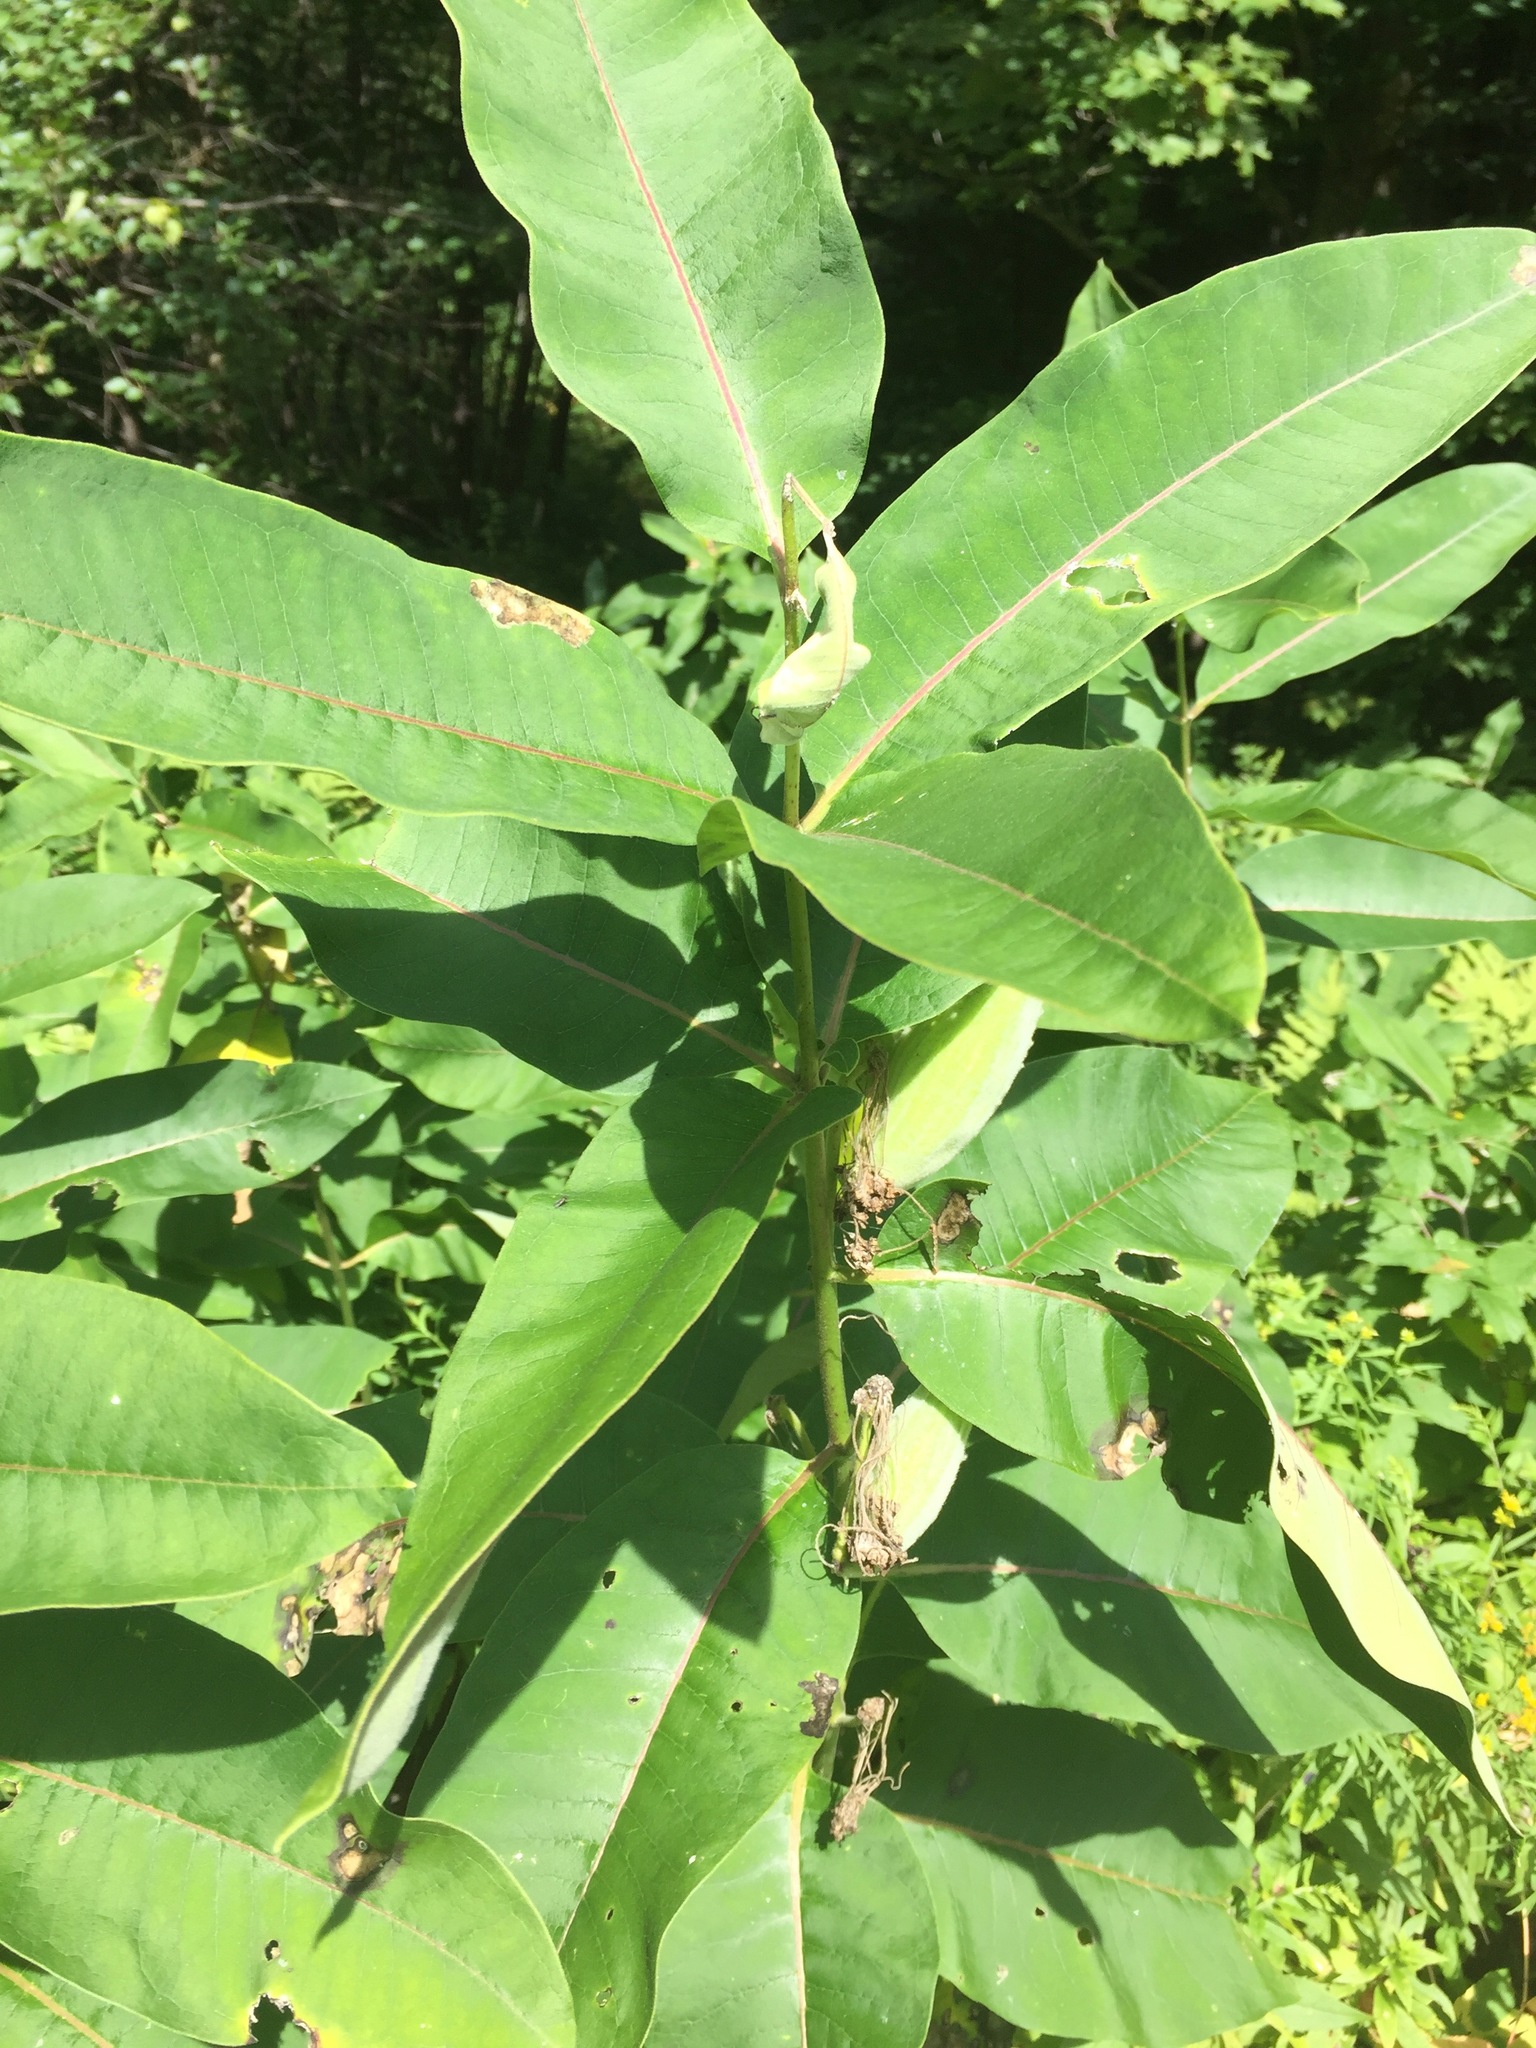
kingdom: Plantae
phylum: Tracheophyta
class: Magnoliopsida
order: Gentianales
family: Apocynaceae
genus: Asclepias
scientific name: Asclepias syriaca
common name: Common milkweed
